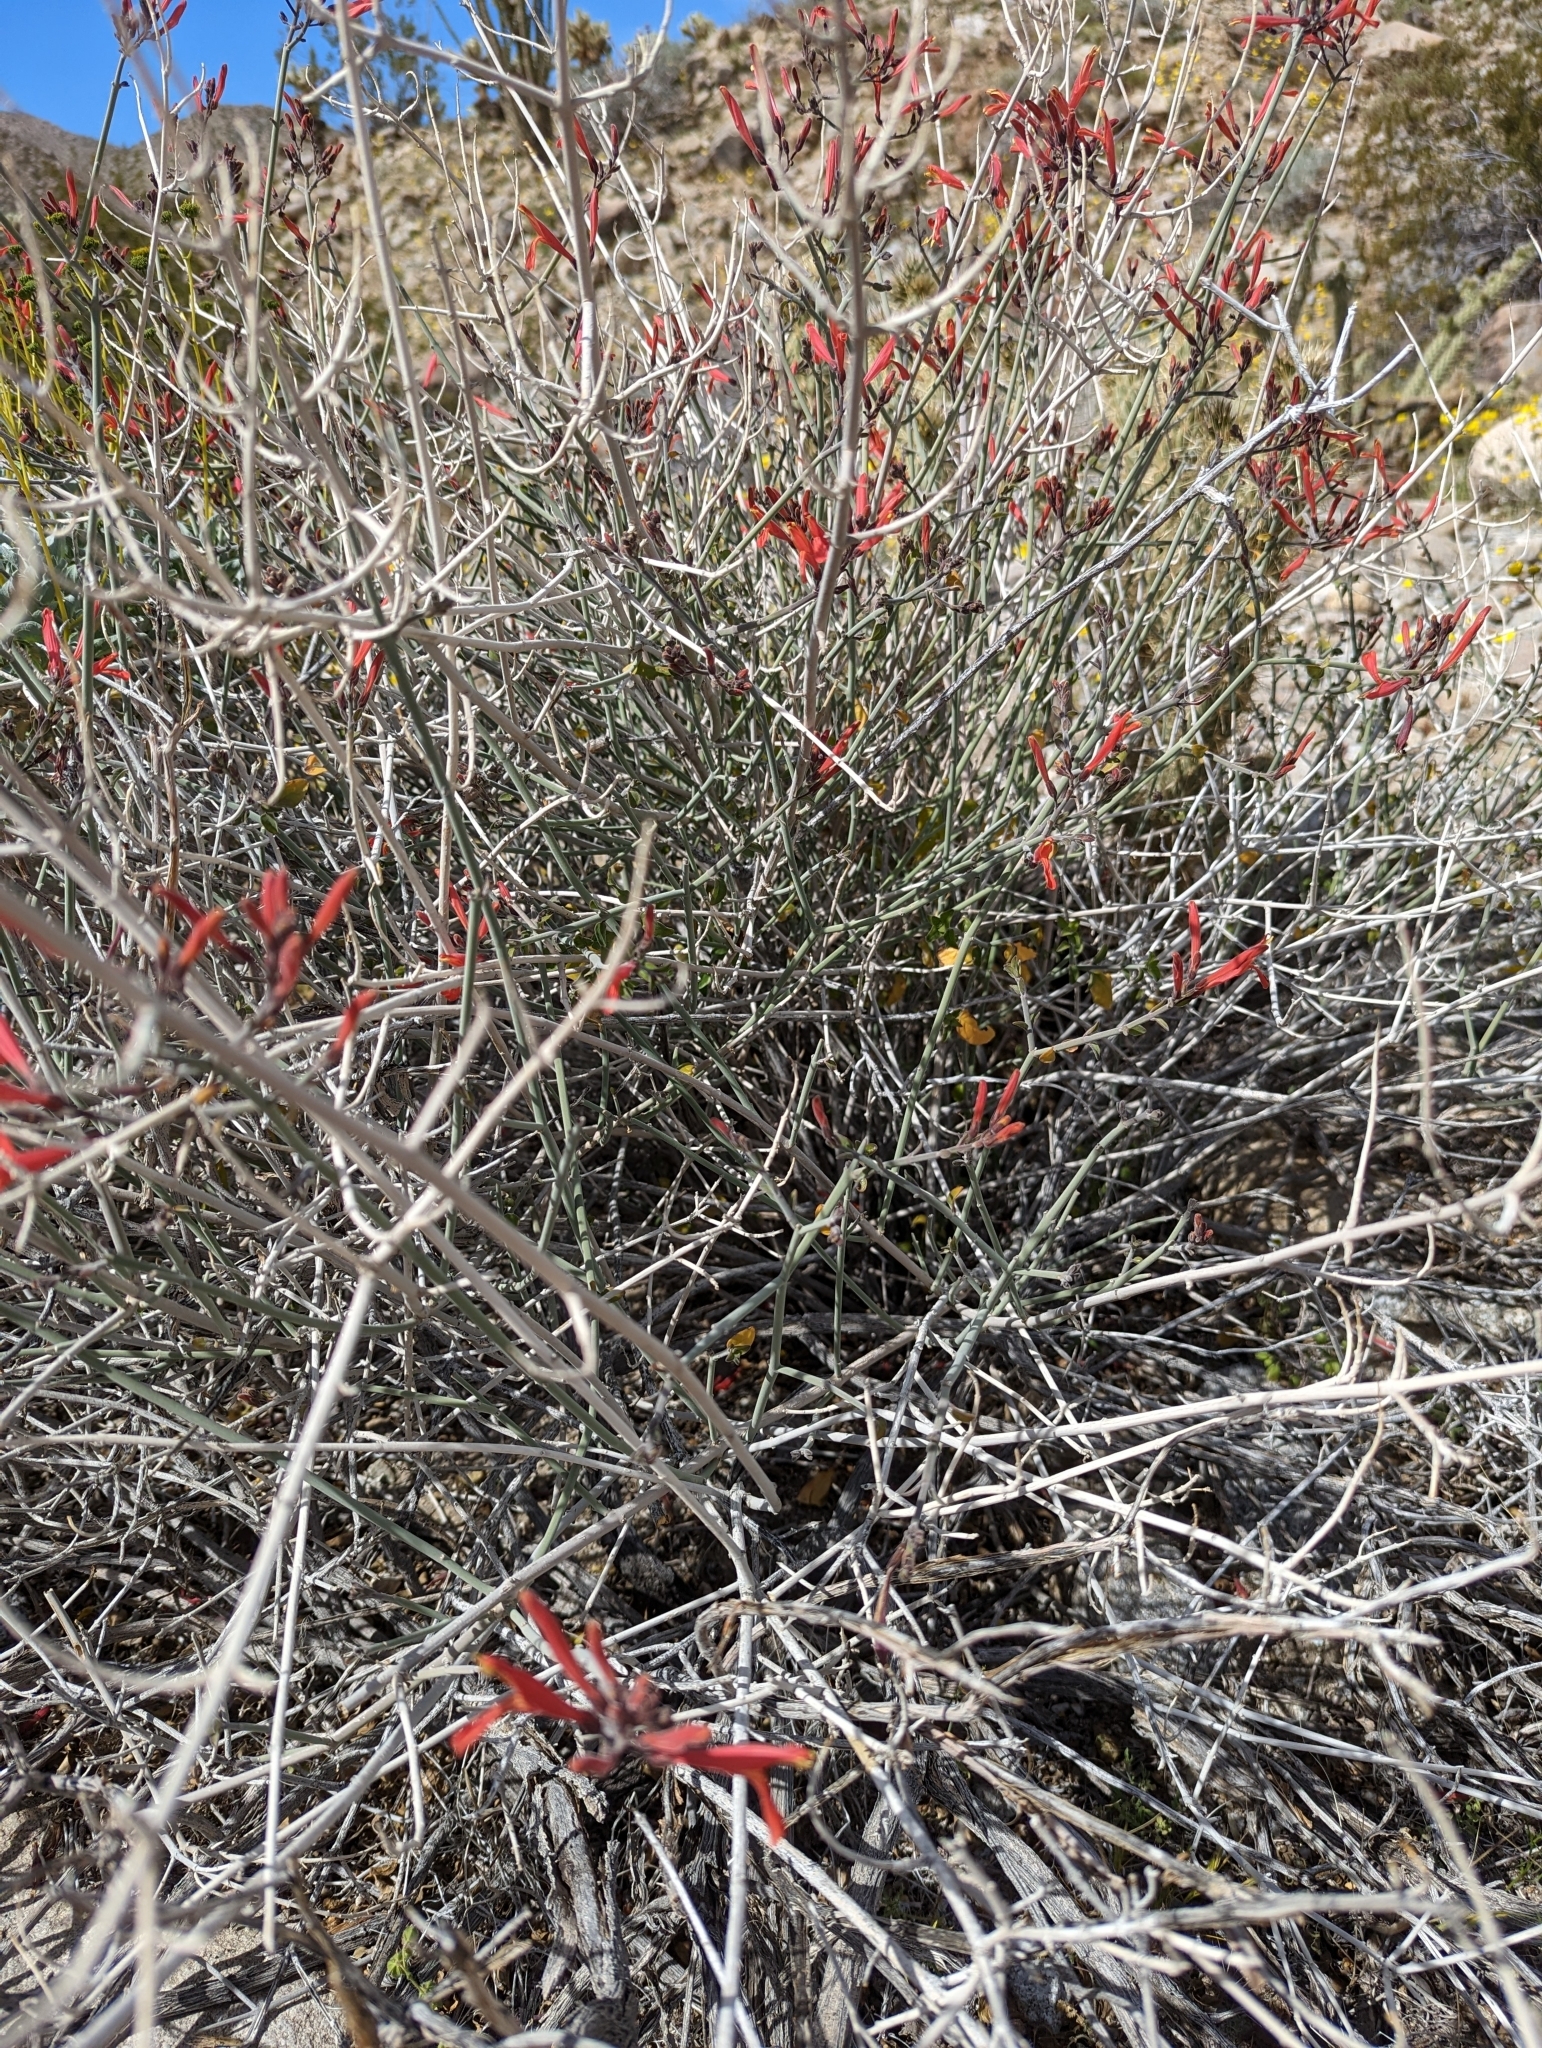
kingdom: Plantae
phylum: Tracheophyta
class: Magnoliopsida
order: Lamiales
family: Acanthaceae
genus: Justicia
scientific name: Justicia californica
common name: Chuparosa-honeysuckle
